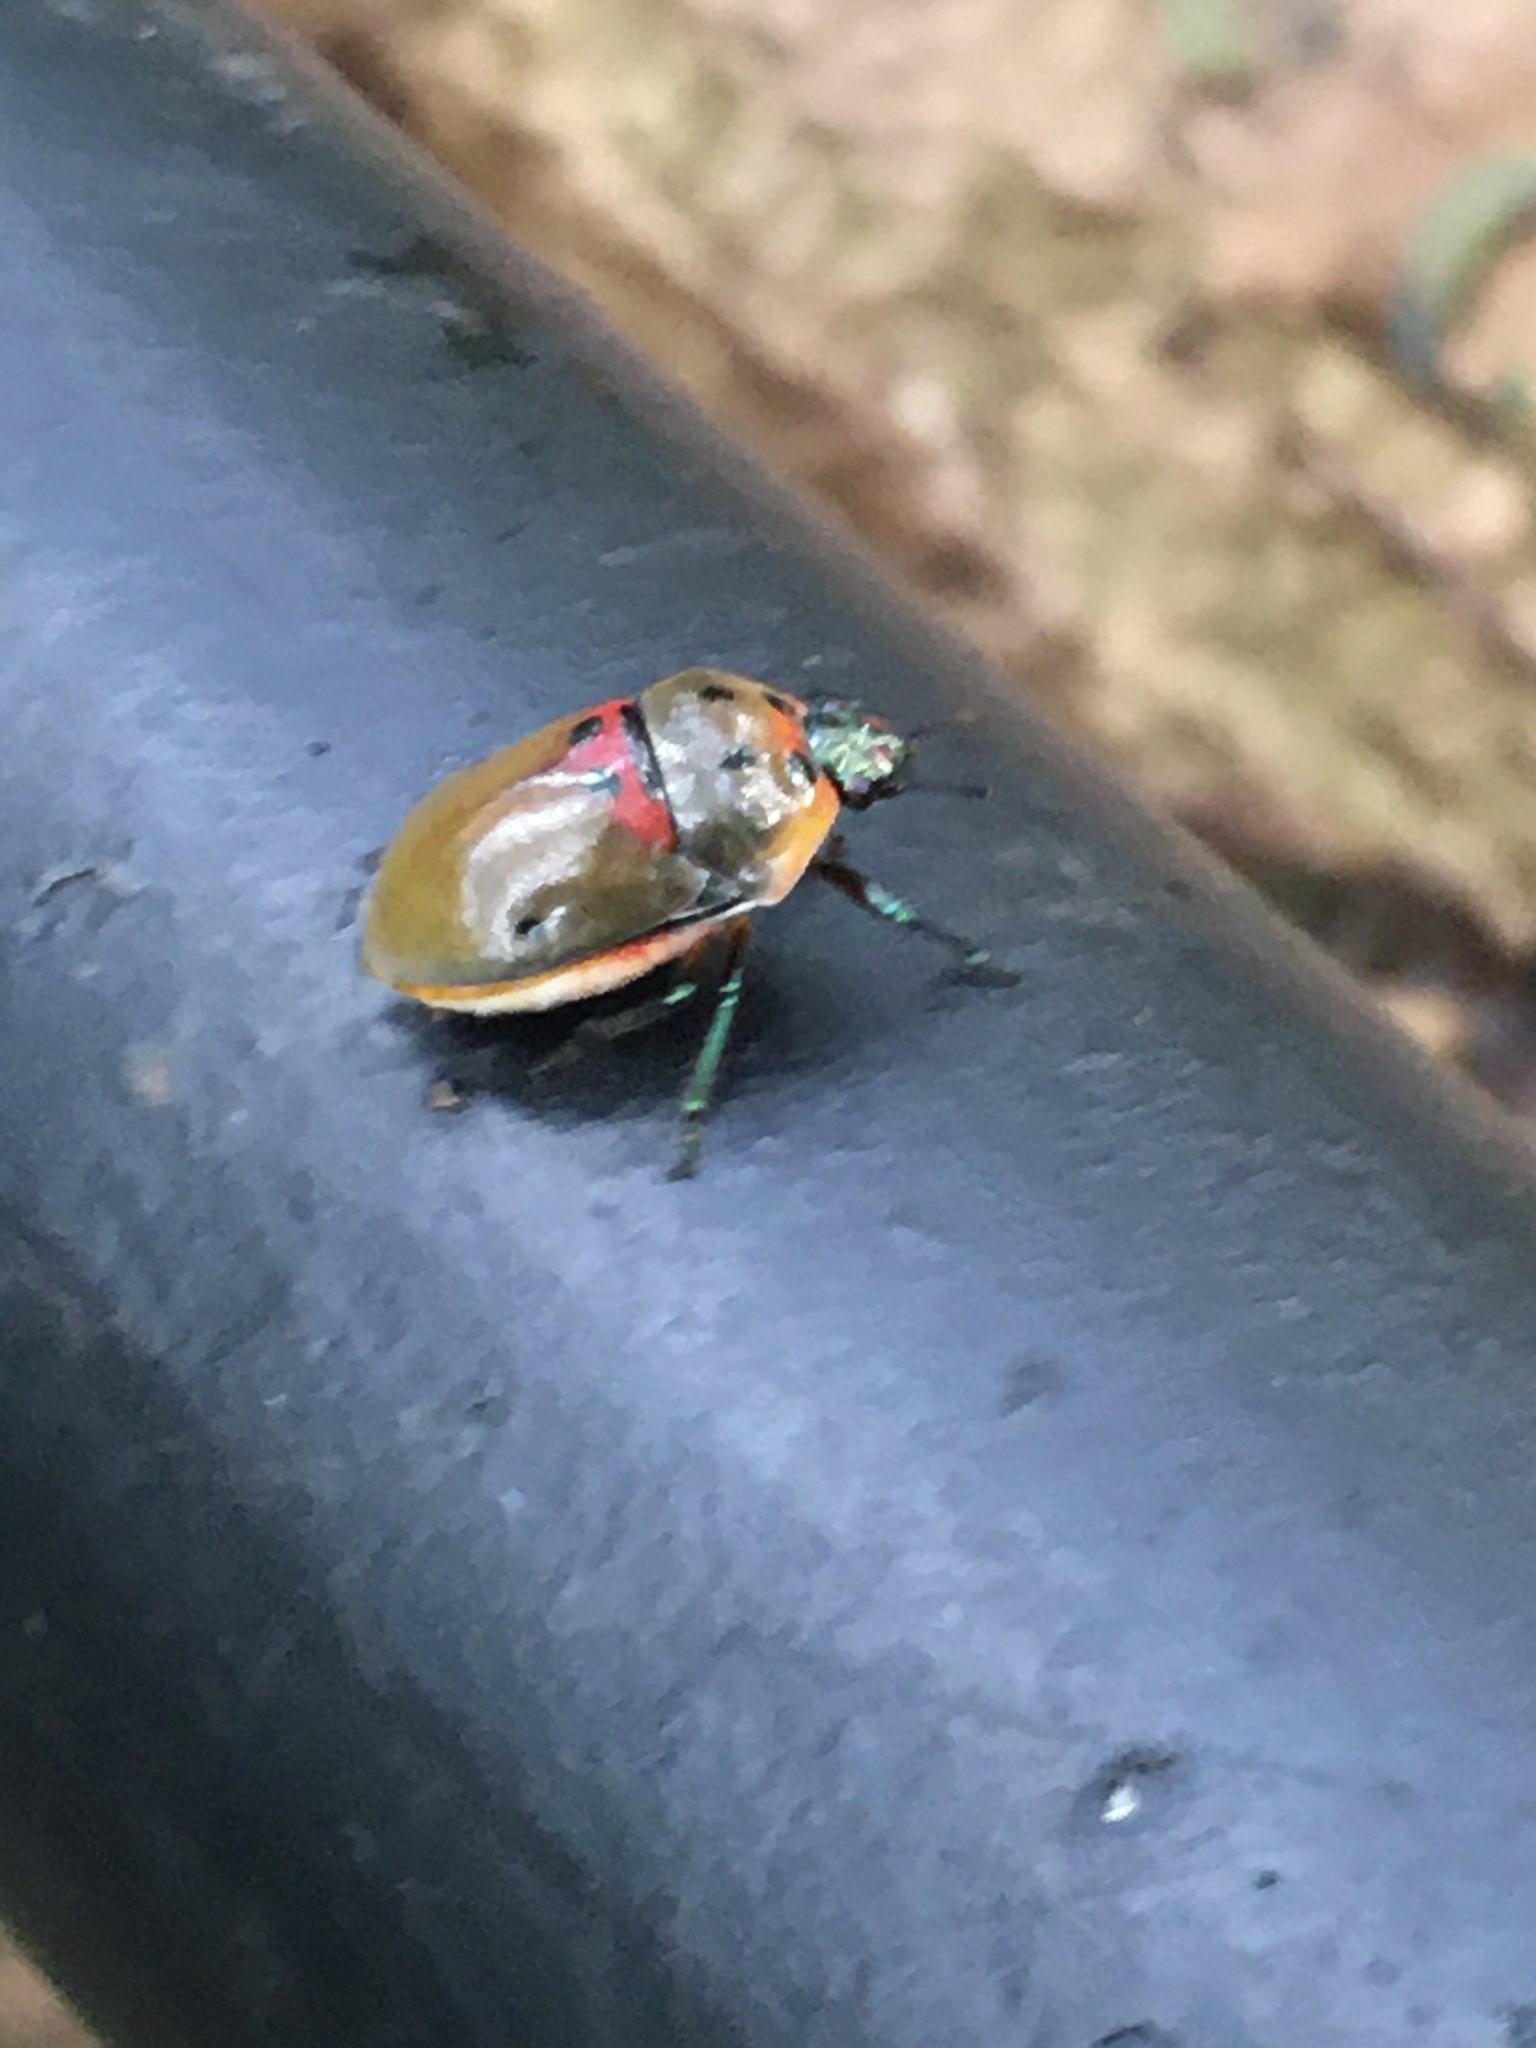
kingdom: Animalia
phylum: Arthropoda
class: Insecta
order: Hemiptera
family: Scutelleridae
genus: Augocoris
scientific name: Augocoris illustris
